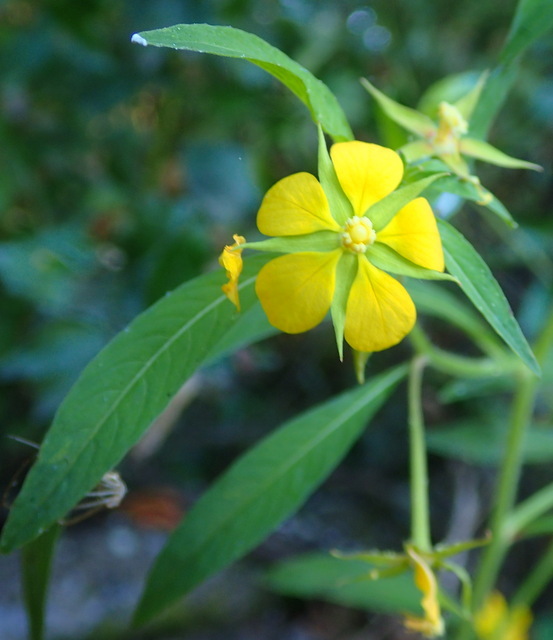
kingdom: Plantae
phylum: Tracheophyta
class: Magnoliopsida
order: Myrtales
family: Onagraceae
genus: Ludwigia
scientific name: Ludwigia leptocarpa
